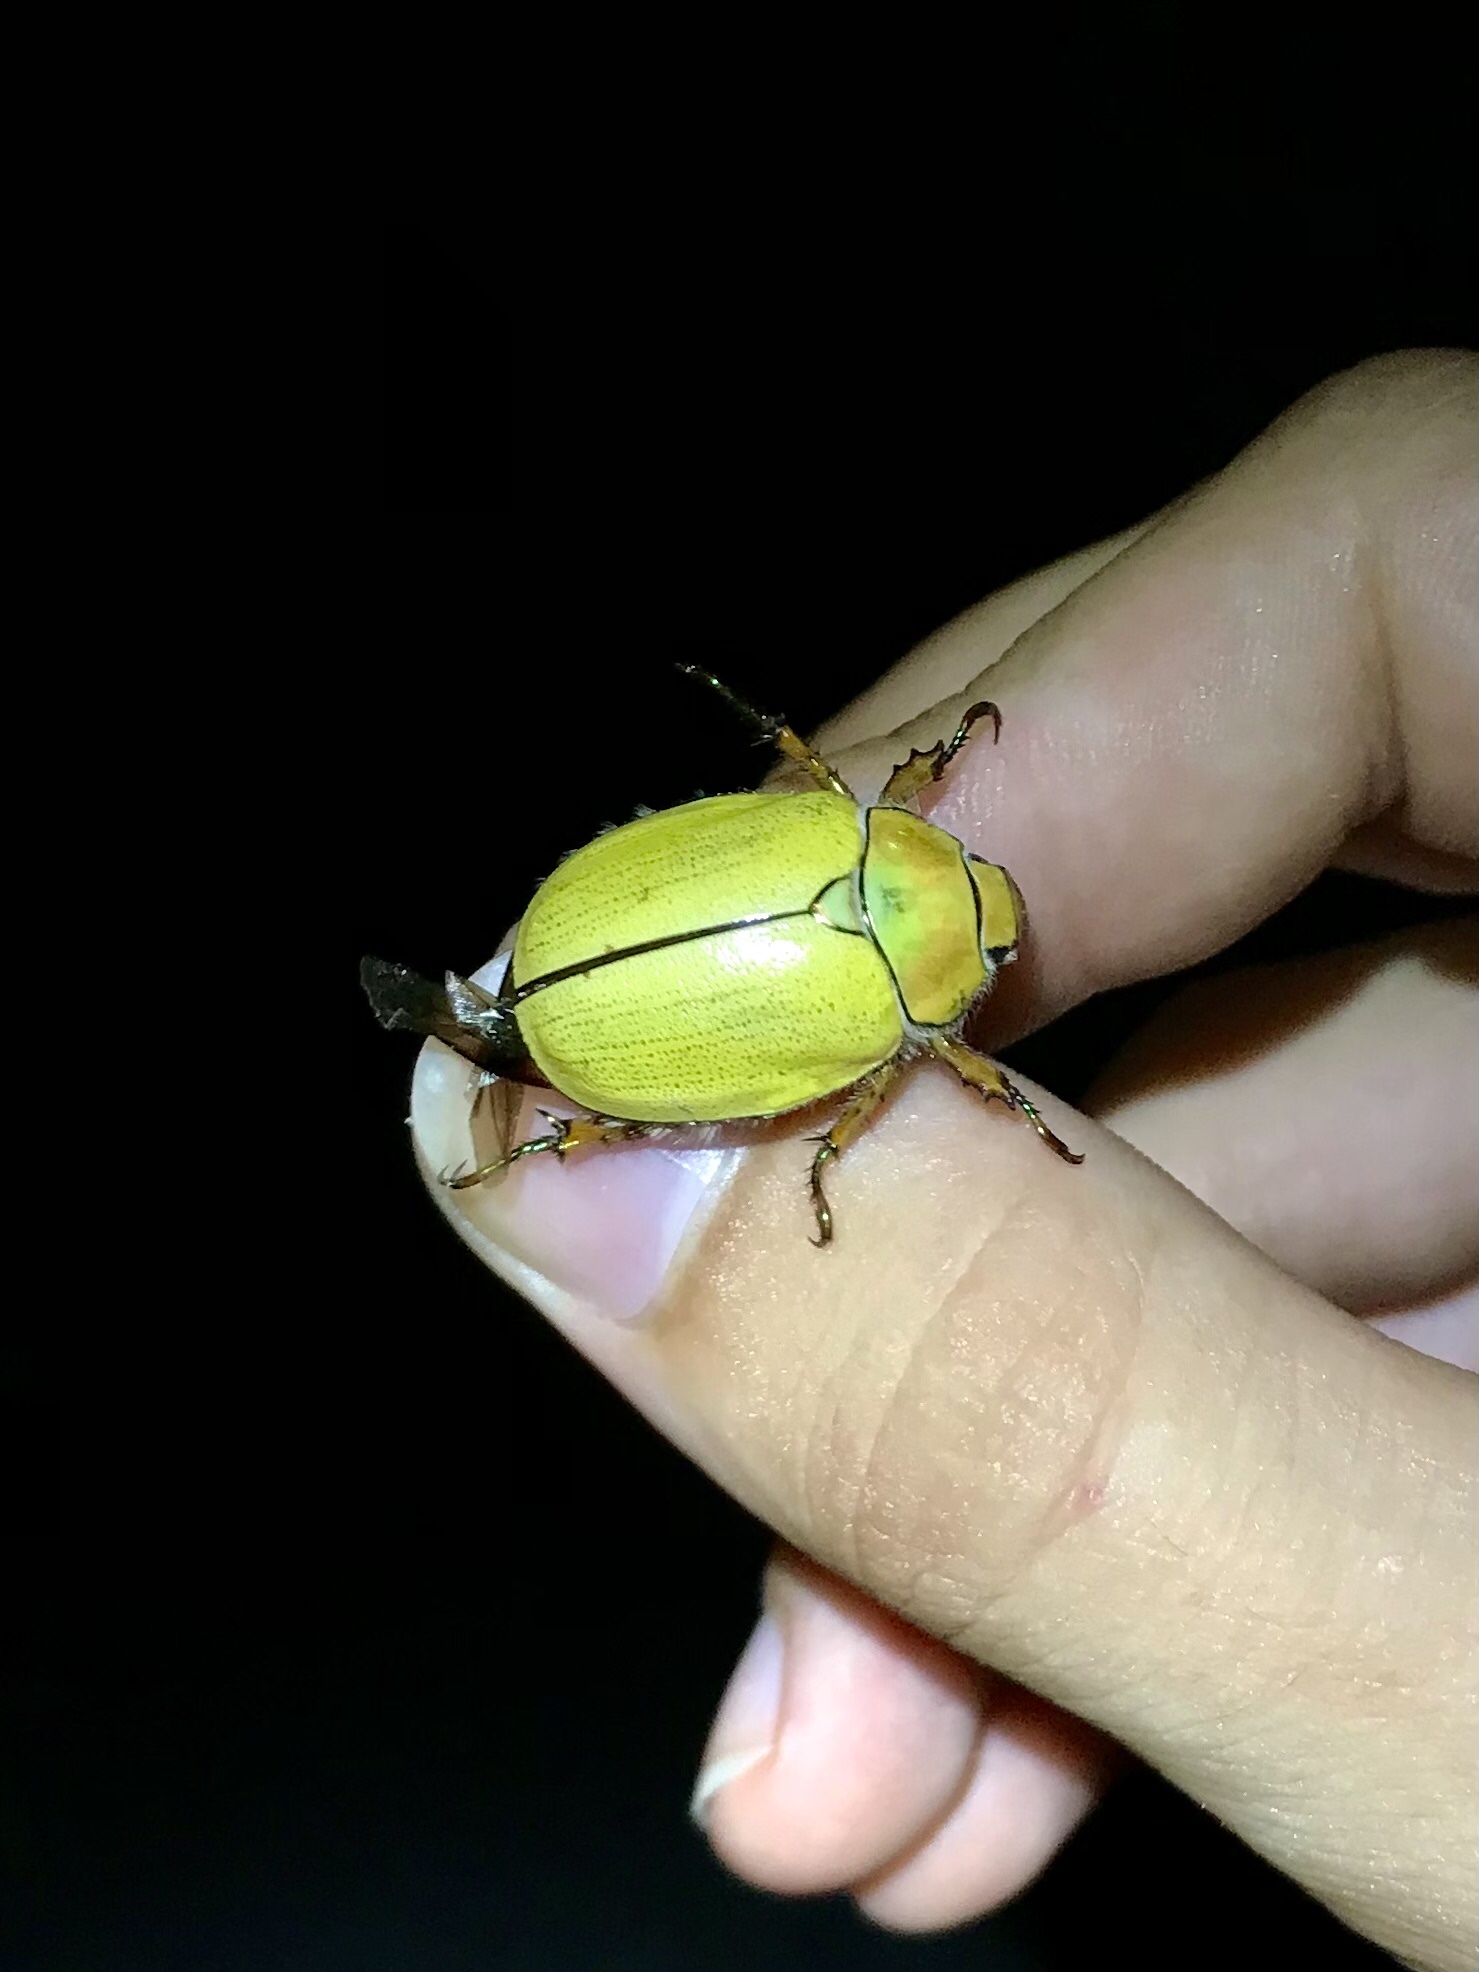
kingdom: Animalia
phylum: Arthropoda
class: Insecta
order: Coleoptera
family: Scarabaeidae
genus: Cotalpa
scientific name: Cotalpa lanigera
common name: Goldsmith beetle
